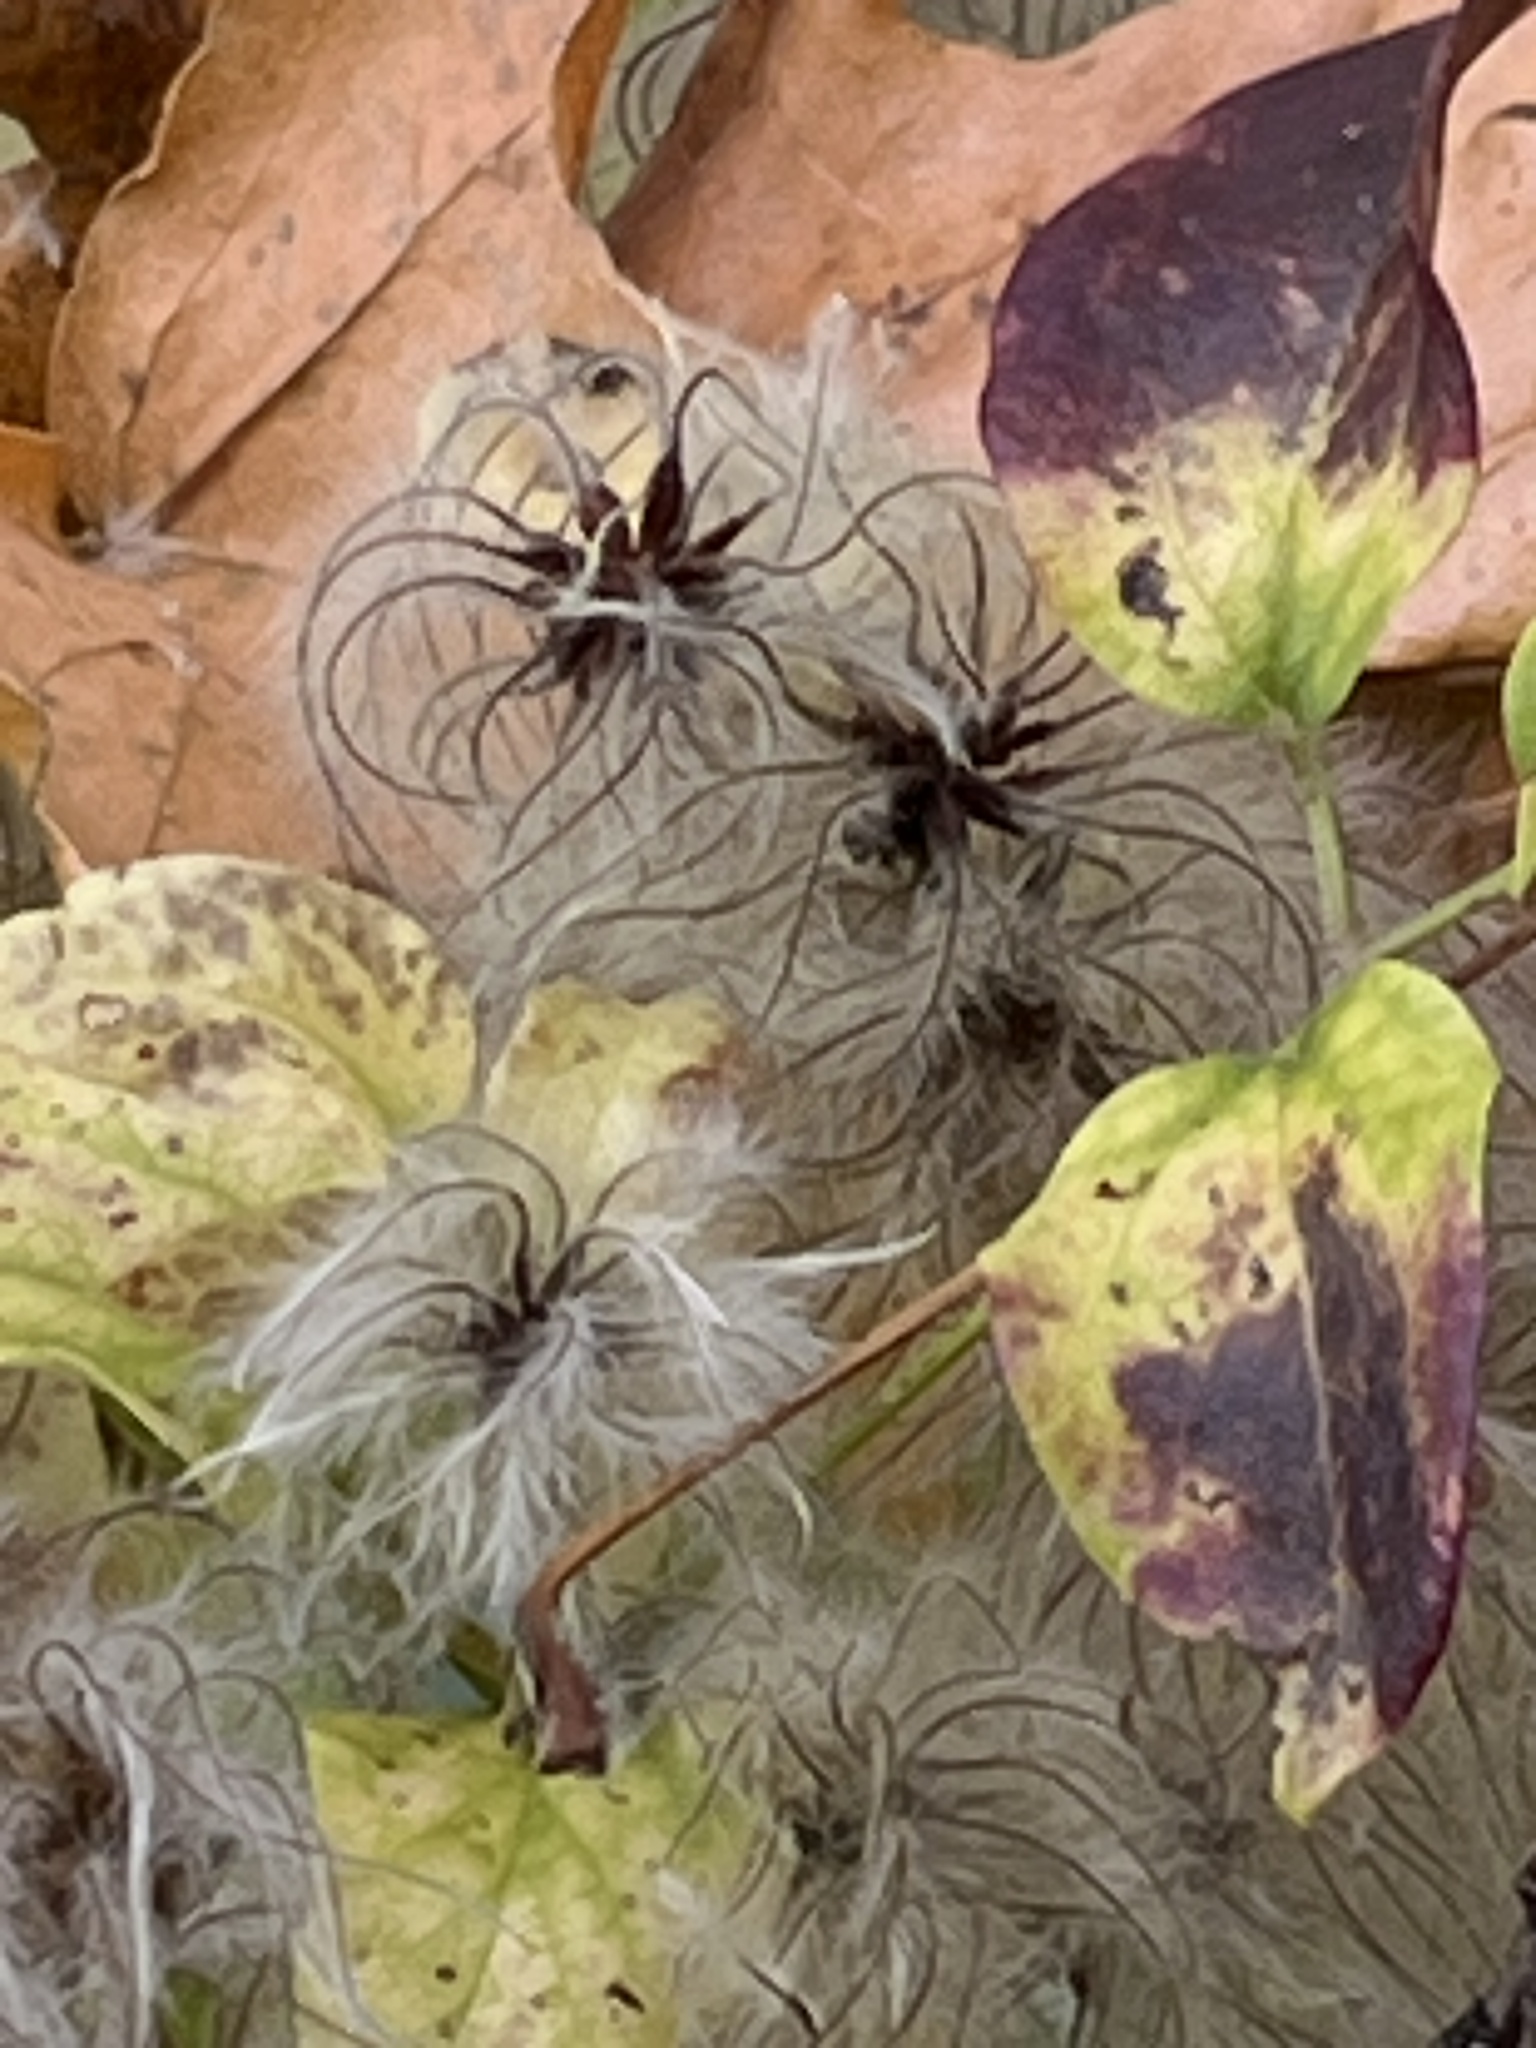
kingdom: Plantae
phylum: Tracheophyta
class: Magnoliopsida
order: Ranunculales
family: Ranunculaceae
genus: Clematis
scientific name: Clematis vitalba
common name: Evergreen clematis
